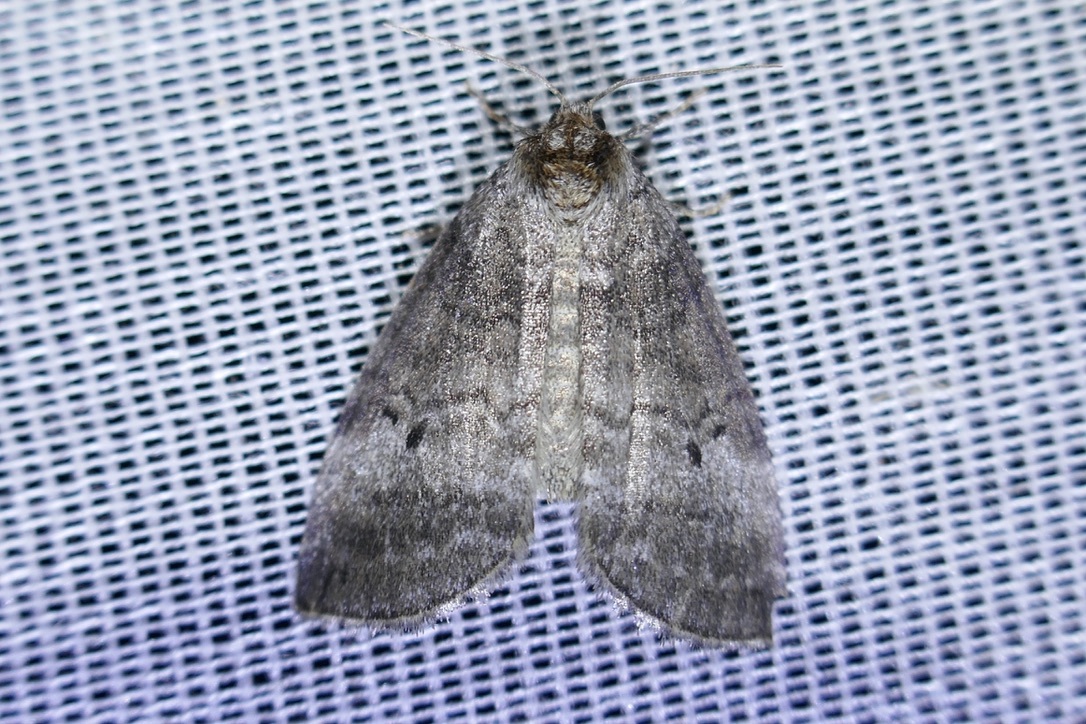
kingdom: Animalia
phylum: Arthropoda
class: Insecta
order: Lepidoptera
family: Drepanidae
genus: Ochropacha
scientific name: Ochropacha duplaris
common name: Common lutestring
